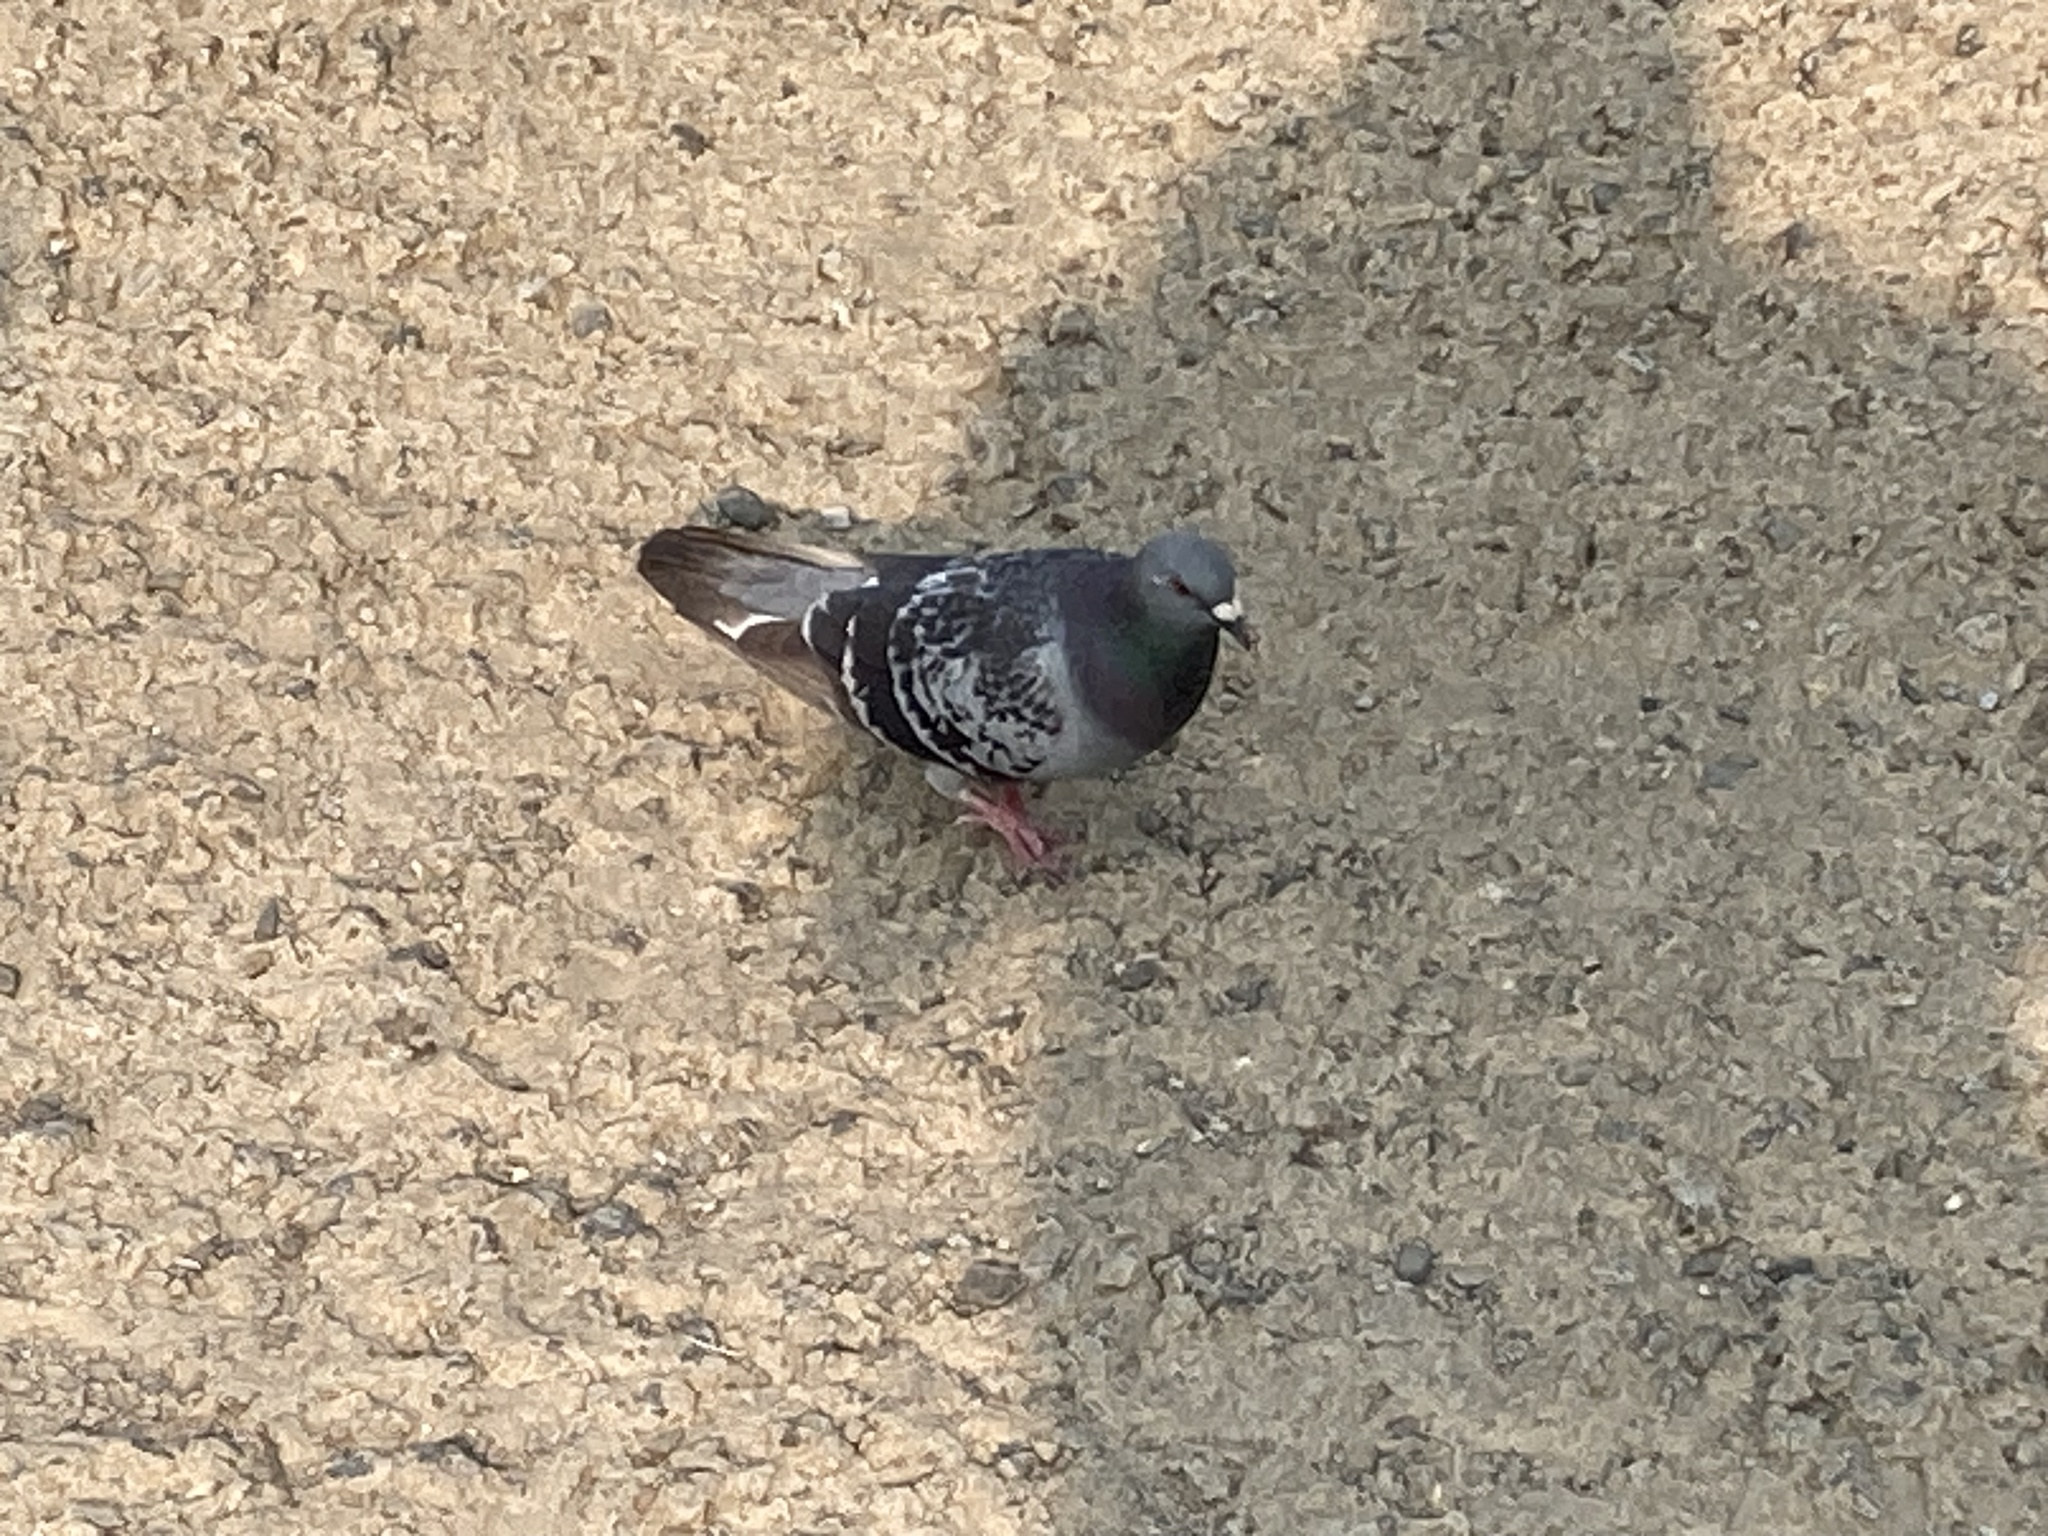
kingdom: Animalia
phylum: Chordata
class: Aves
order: Columbiformes
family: Columbidae
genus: Columba
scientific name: Columba livia
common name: Rock pigeon
